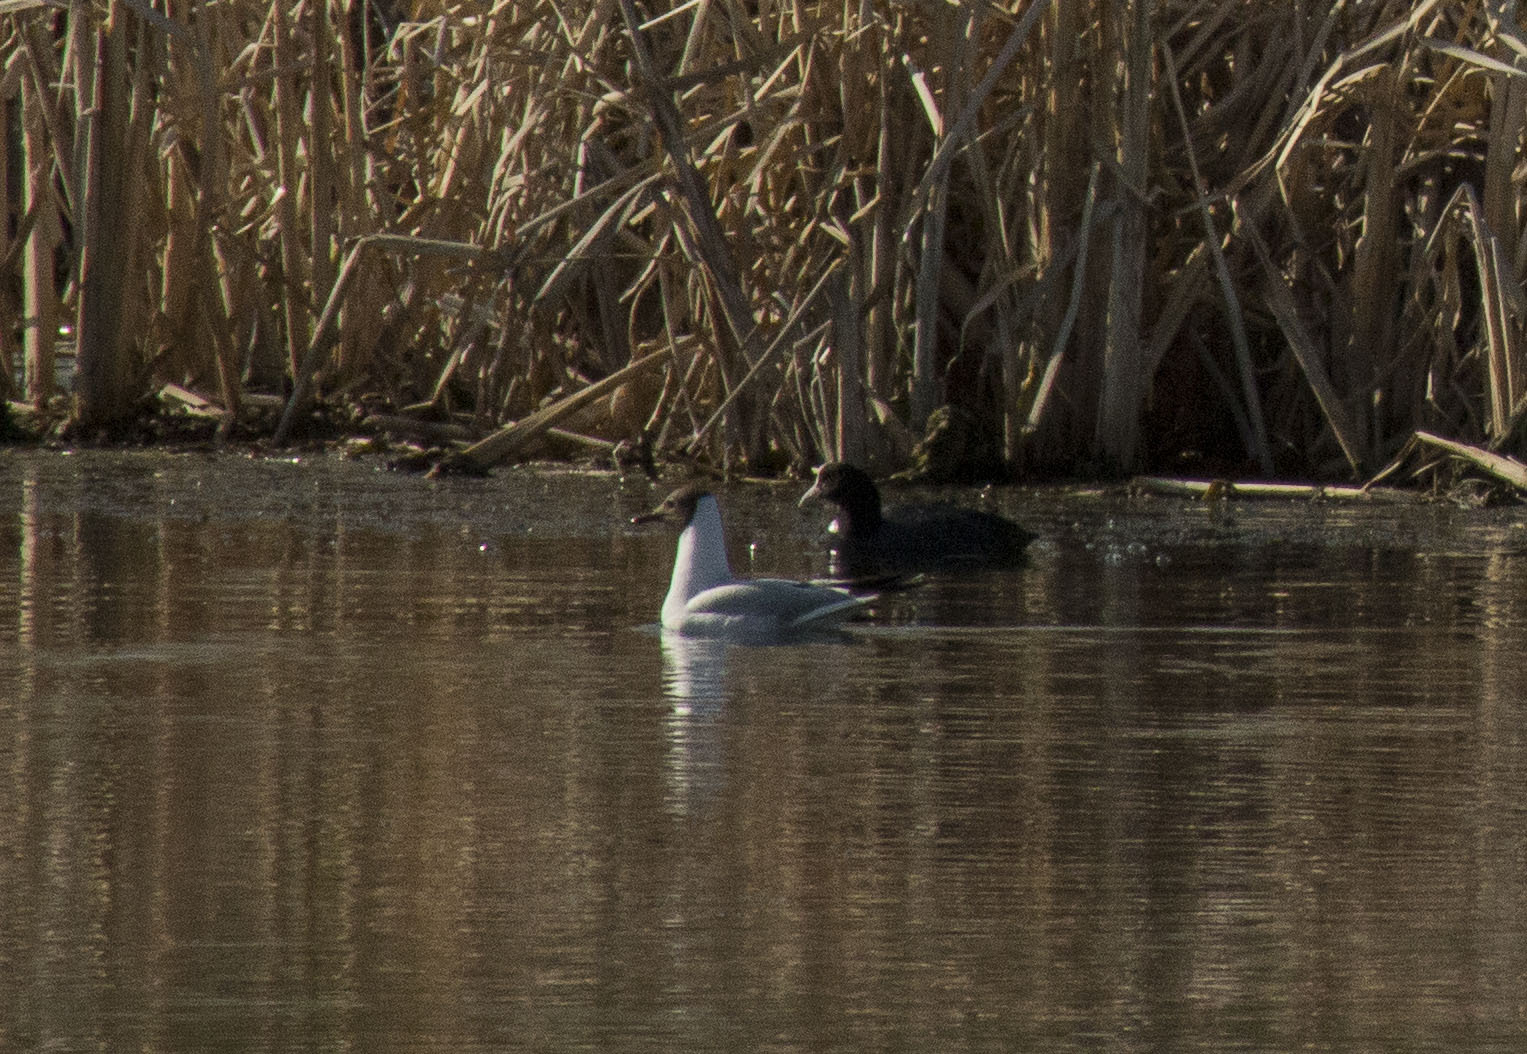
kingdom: Animalia
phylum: Chordata
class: Aves
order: Gruiformes
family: Rallidae
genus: Fulica
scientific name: Fulica atra
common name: Eurasian coot
